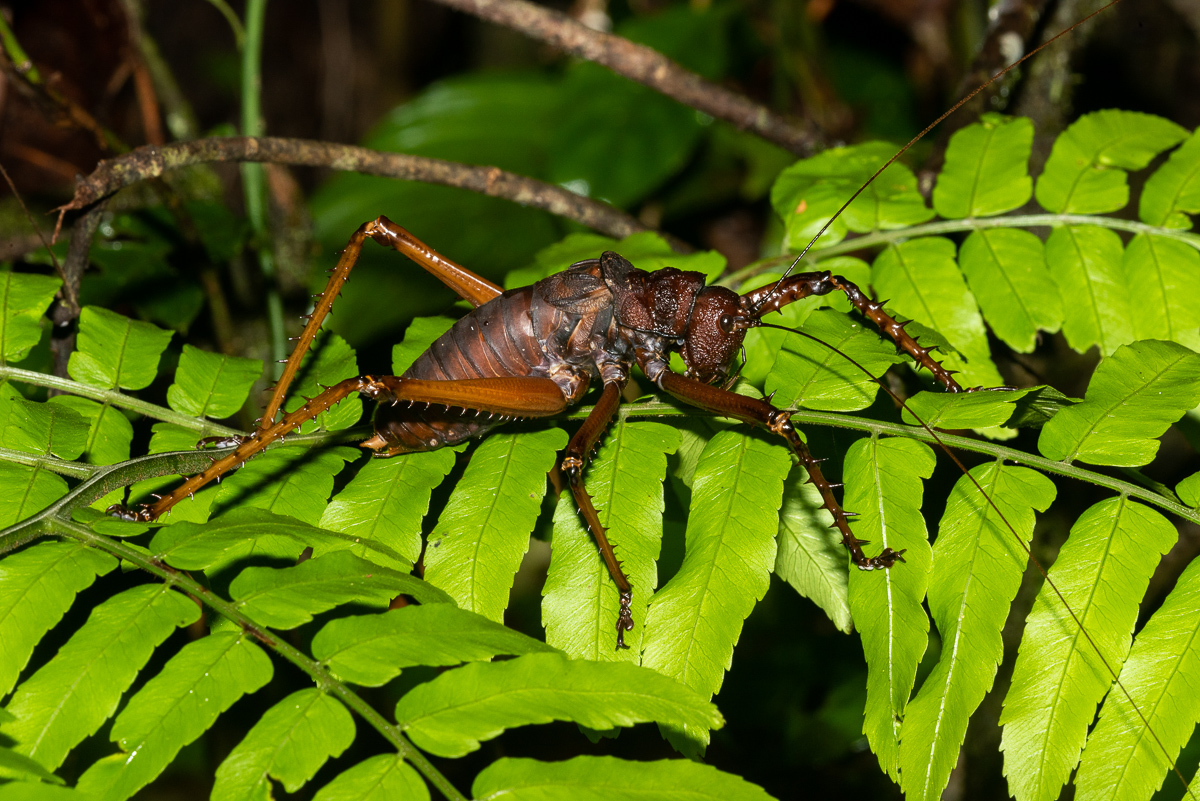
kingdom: Animalia
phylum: Arthropoda
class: Insecta
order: Orthoptera
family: Tettigoniidae
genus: Panoploscelis
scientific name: Panoploscelis specularis
